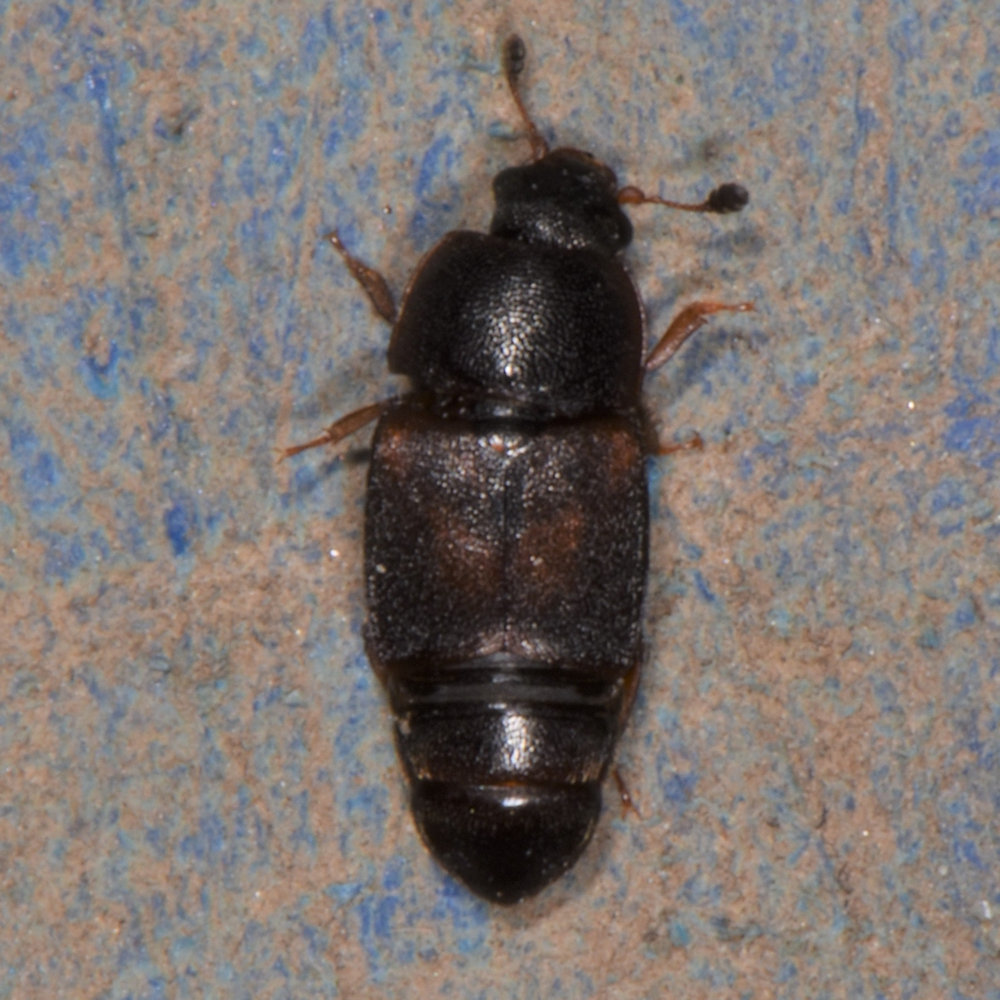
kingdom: Animalia
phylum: Arthropoda
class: Insecta
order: Coleoptera
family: Nitidulidae
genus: Carpophilus
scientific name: Carpophilus
